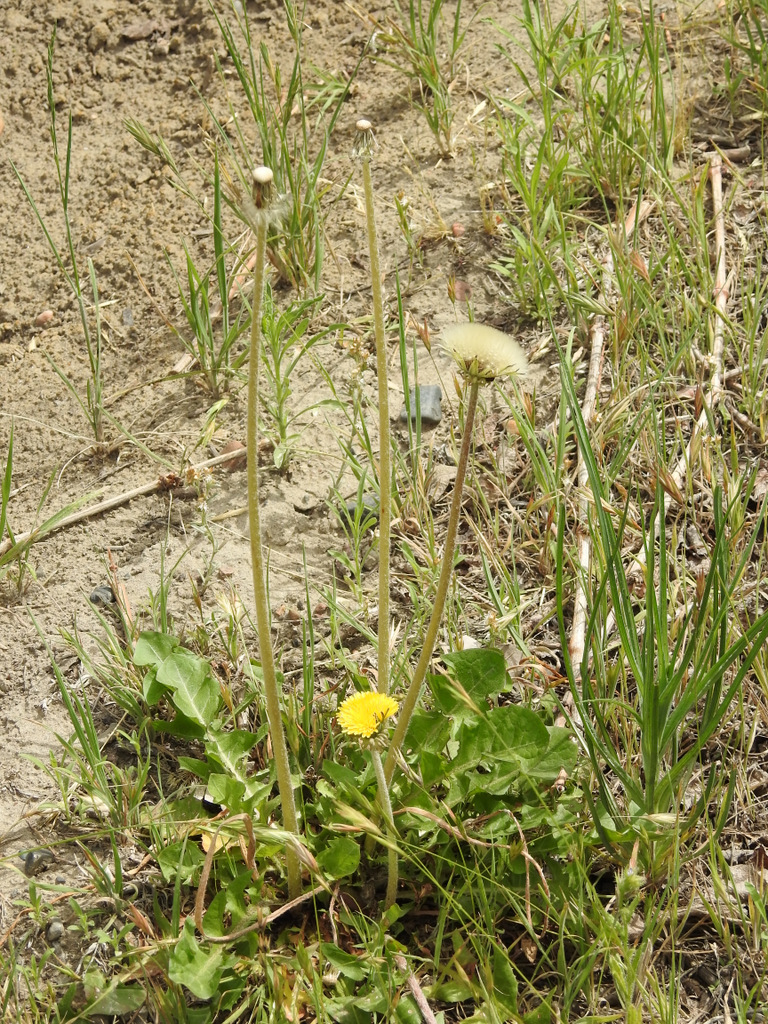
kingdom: Plantae
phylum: Tracheophyta
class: Magnoliopsida
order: Asterales
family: Asteraceae
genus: Taraxacum
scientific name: Taraxacum officinale
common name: Common dandelion
